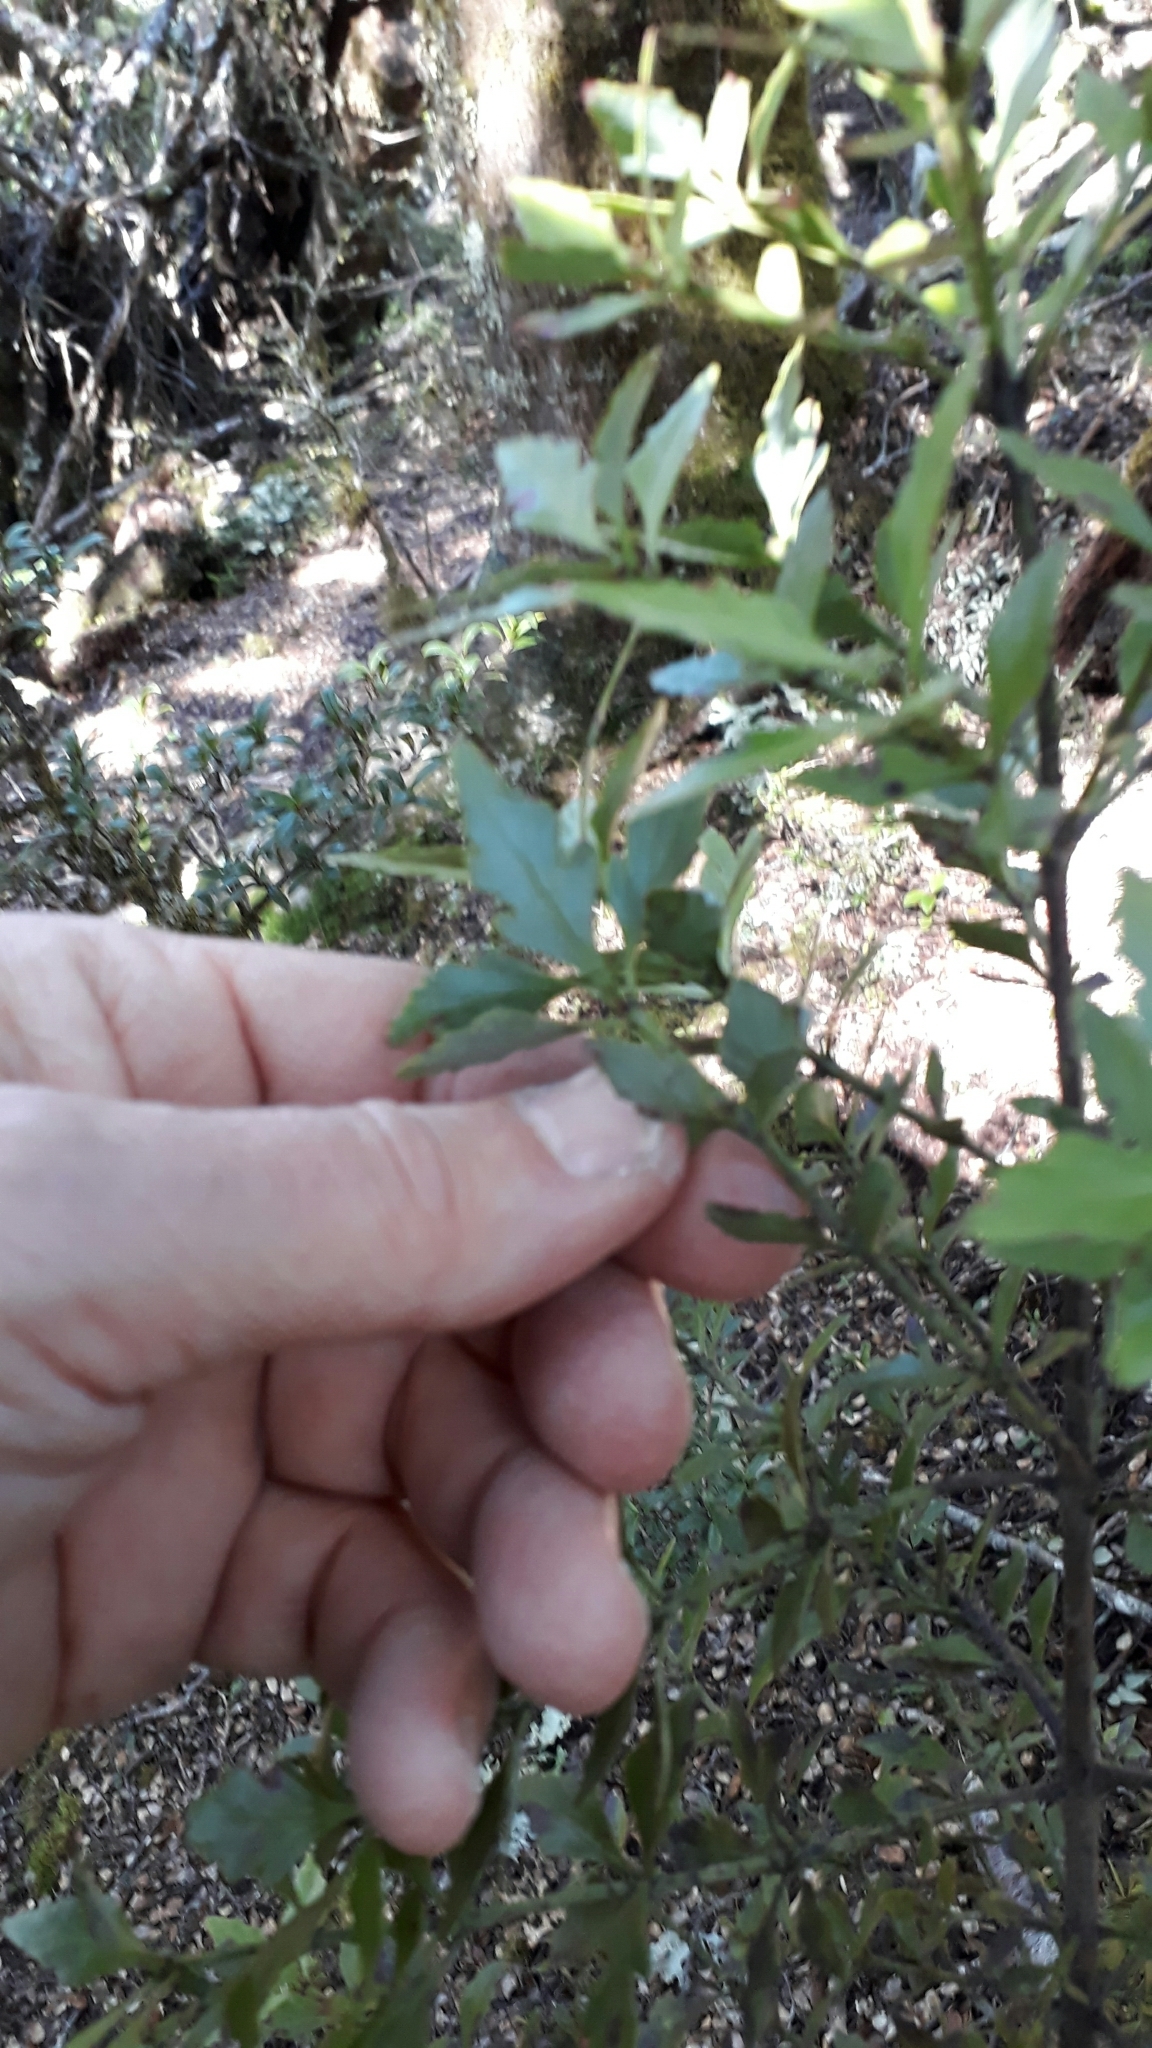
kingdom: Plantae
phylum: Tracheophyta
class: Pinopsida
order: Pinales
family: Phyllocladaceae
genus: Phyllocladus
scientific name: Phyllocladus trichomanoides
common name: Celery pine
